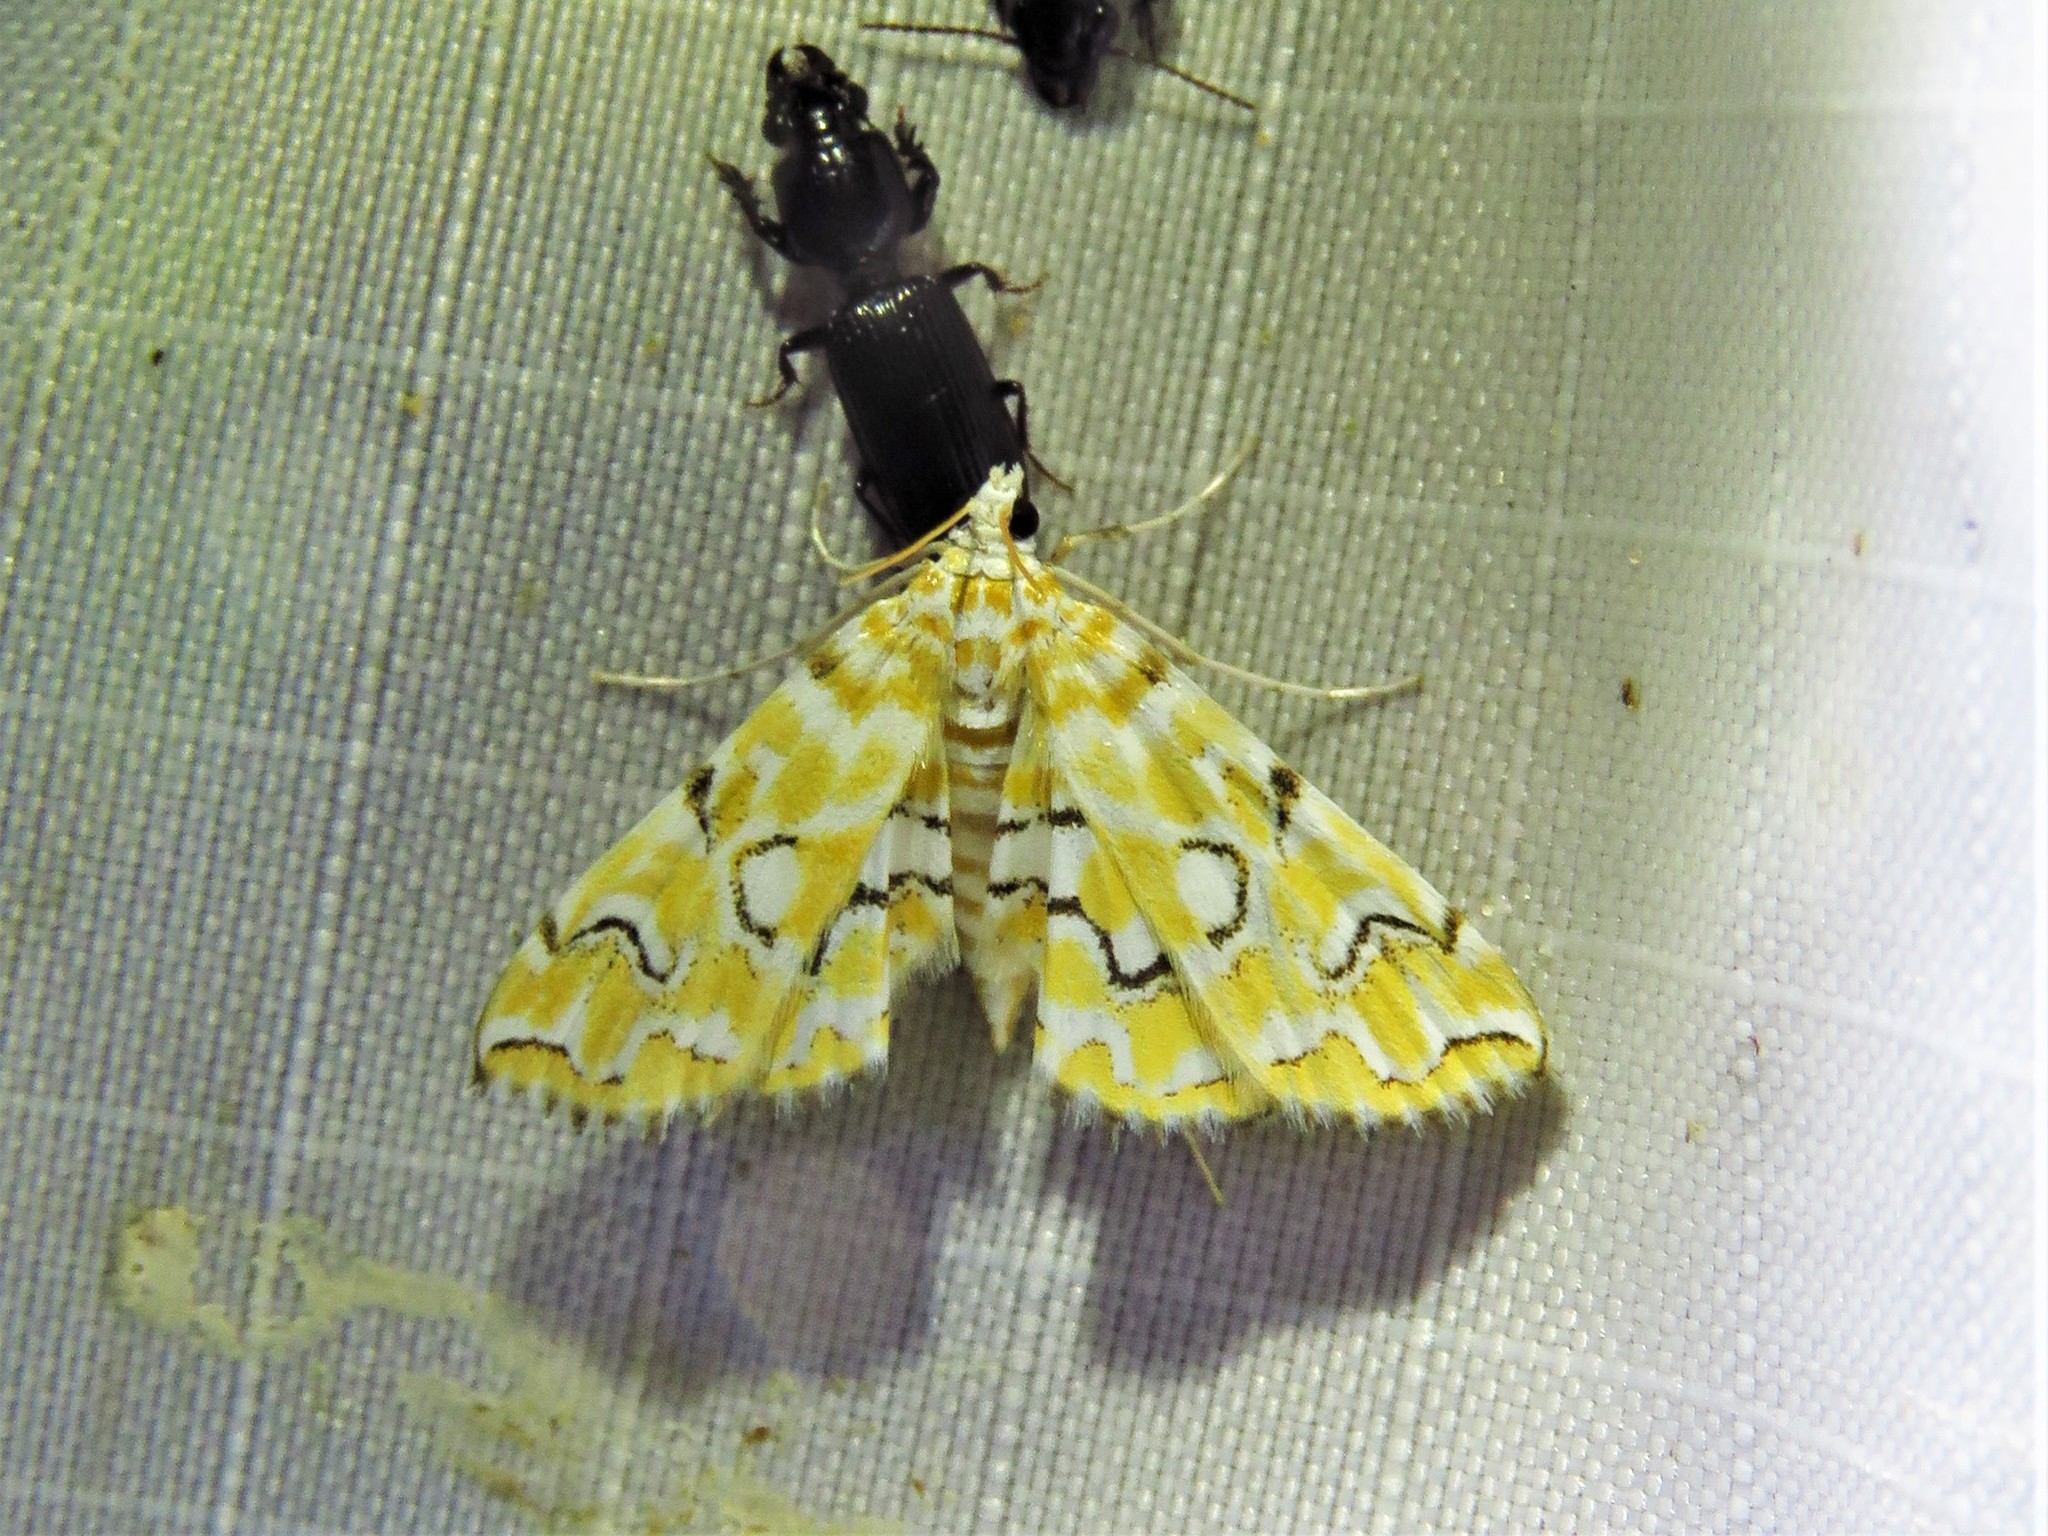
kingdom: Animalia
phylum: Arthropoda
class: Insecta
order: Lepidoptera
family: Crambidae
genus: Elophila
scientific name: Elophila icciusalis
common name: Pondside pyralid moth
